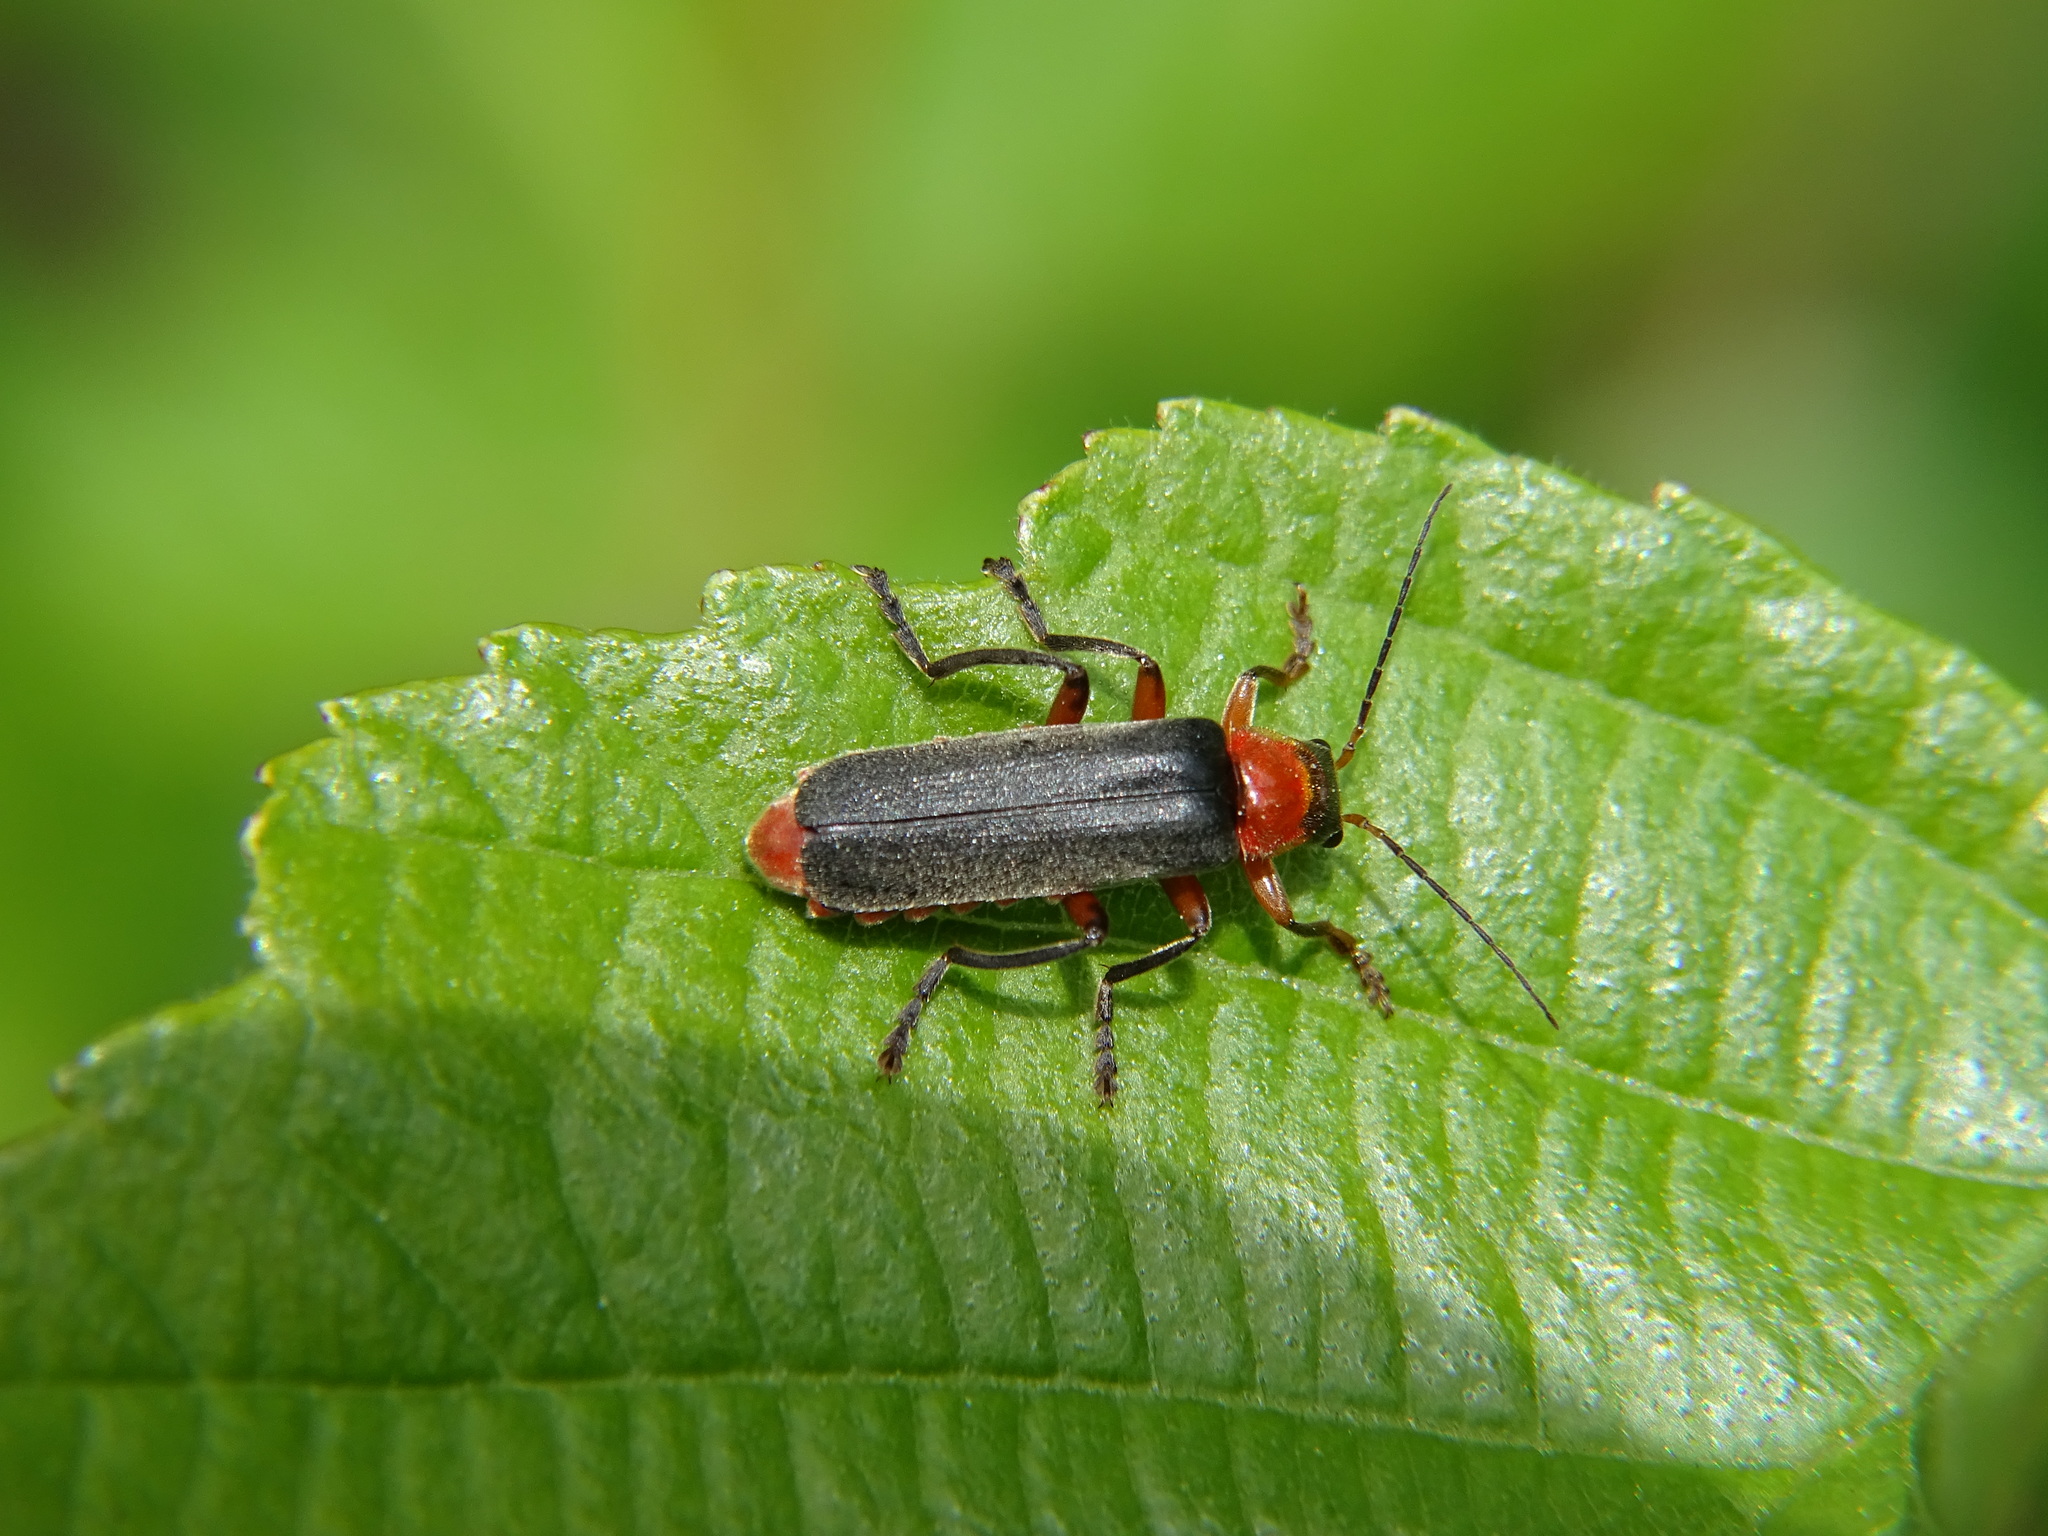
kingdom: Animalia
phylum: Arthropoda
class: Insecta
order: Coleoptera
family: Cantharidae
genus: Cantharis
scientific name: Cantharis pellucida
